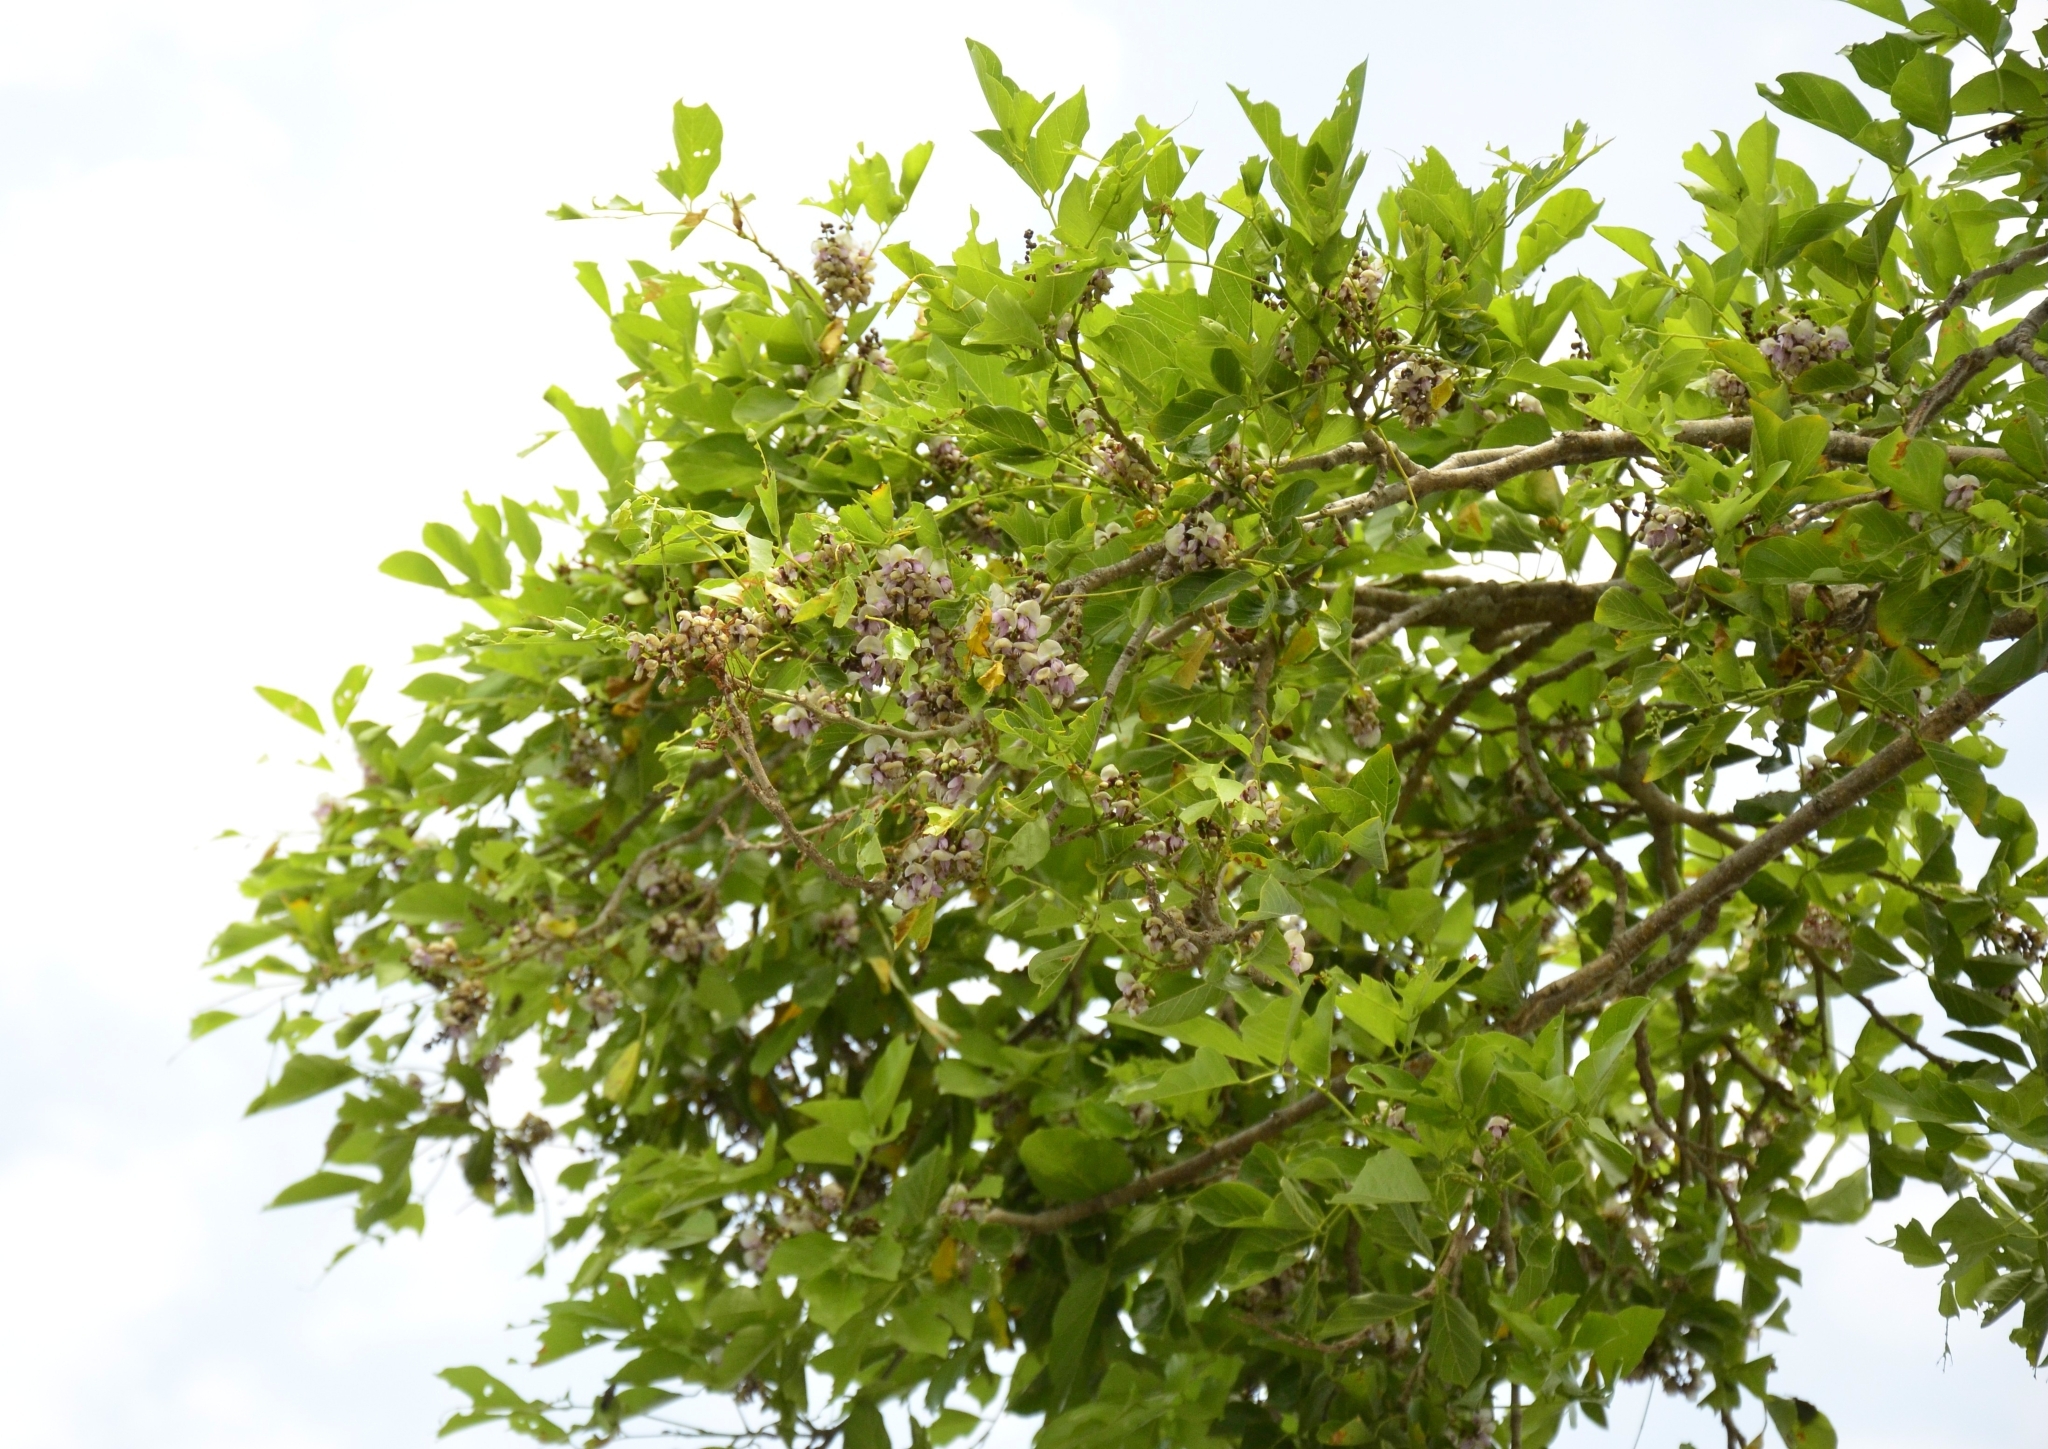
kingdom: Plantae
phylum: Tracheophyta
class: Magnoliopsida
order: Fabales
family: Fabaceae
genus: Pongamia
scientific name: Pongamia pinnata
